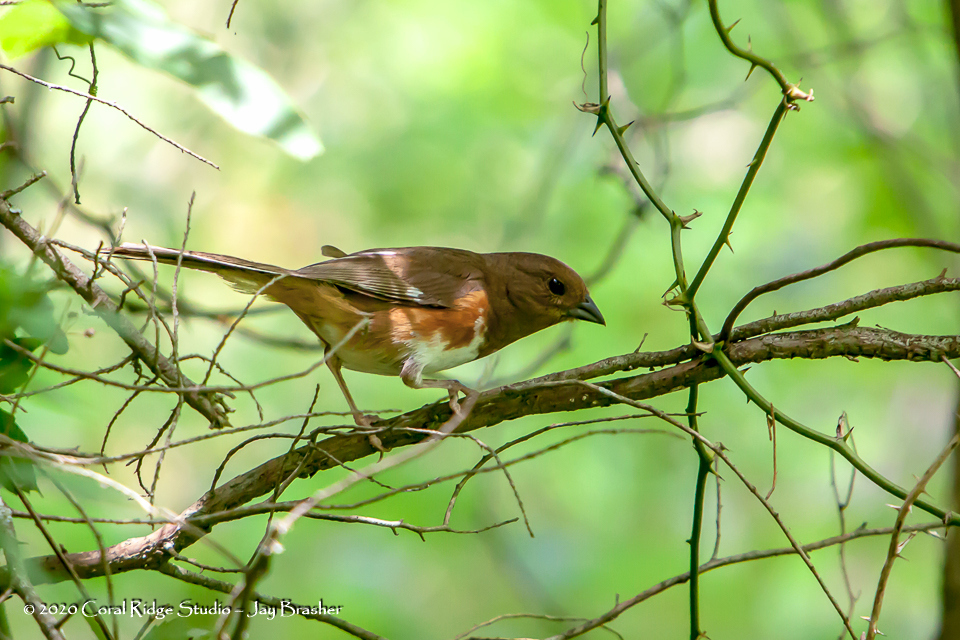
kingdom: Animalia
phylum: Chordata
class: Aves
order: Passeriformes
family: Passerellidae
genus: Pipilo
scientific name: Pipilo erythrophthalmus
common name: Eastern towhee
